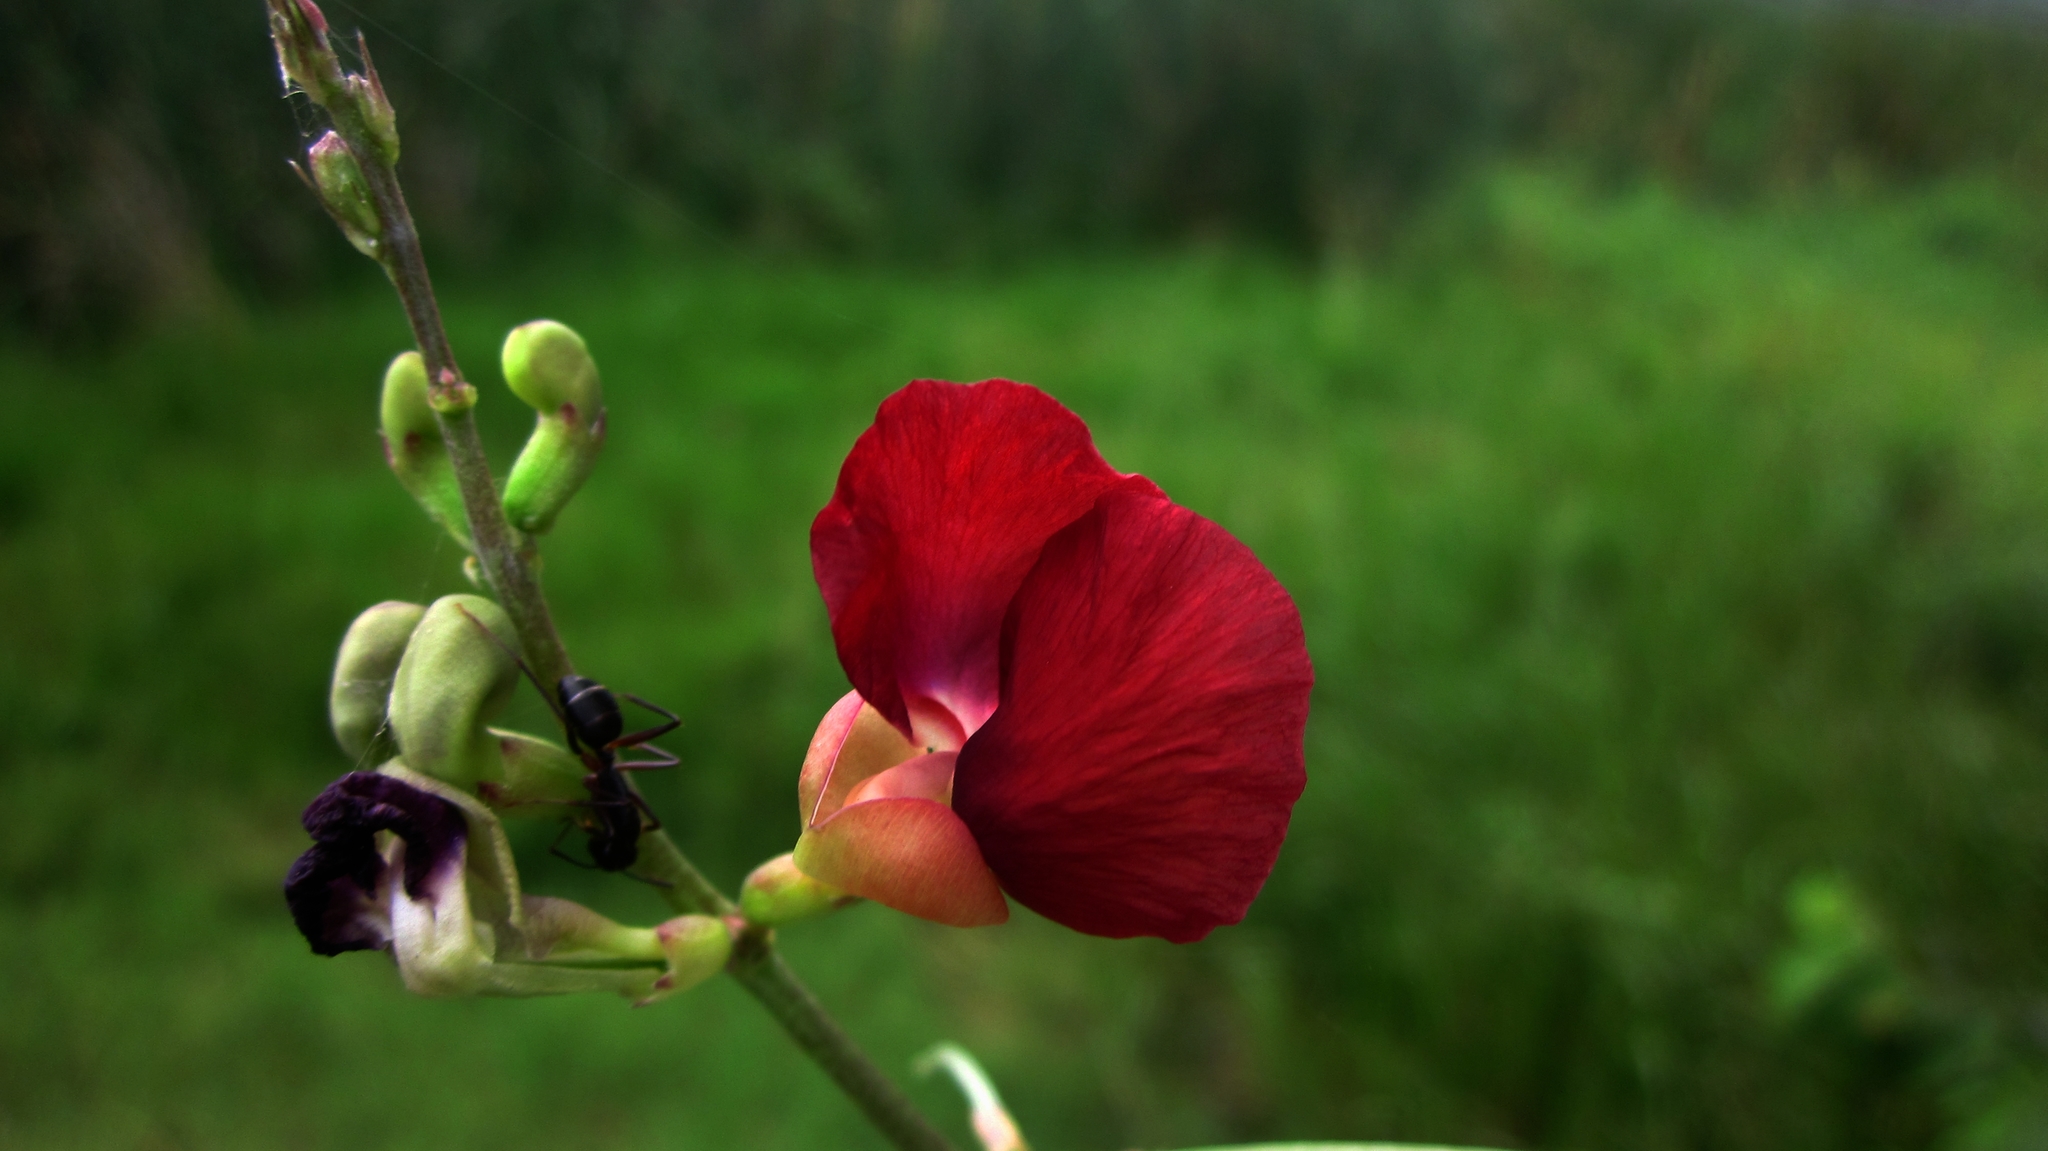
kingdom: Plantae
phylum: Tracheophyta
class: Magnoliopsida
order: Fabales
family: Fabaceae
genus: Macroptilium
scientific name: Macroptilium lathyroides
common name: Wild bushbean
